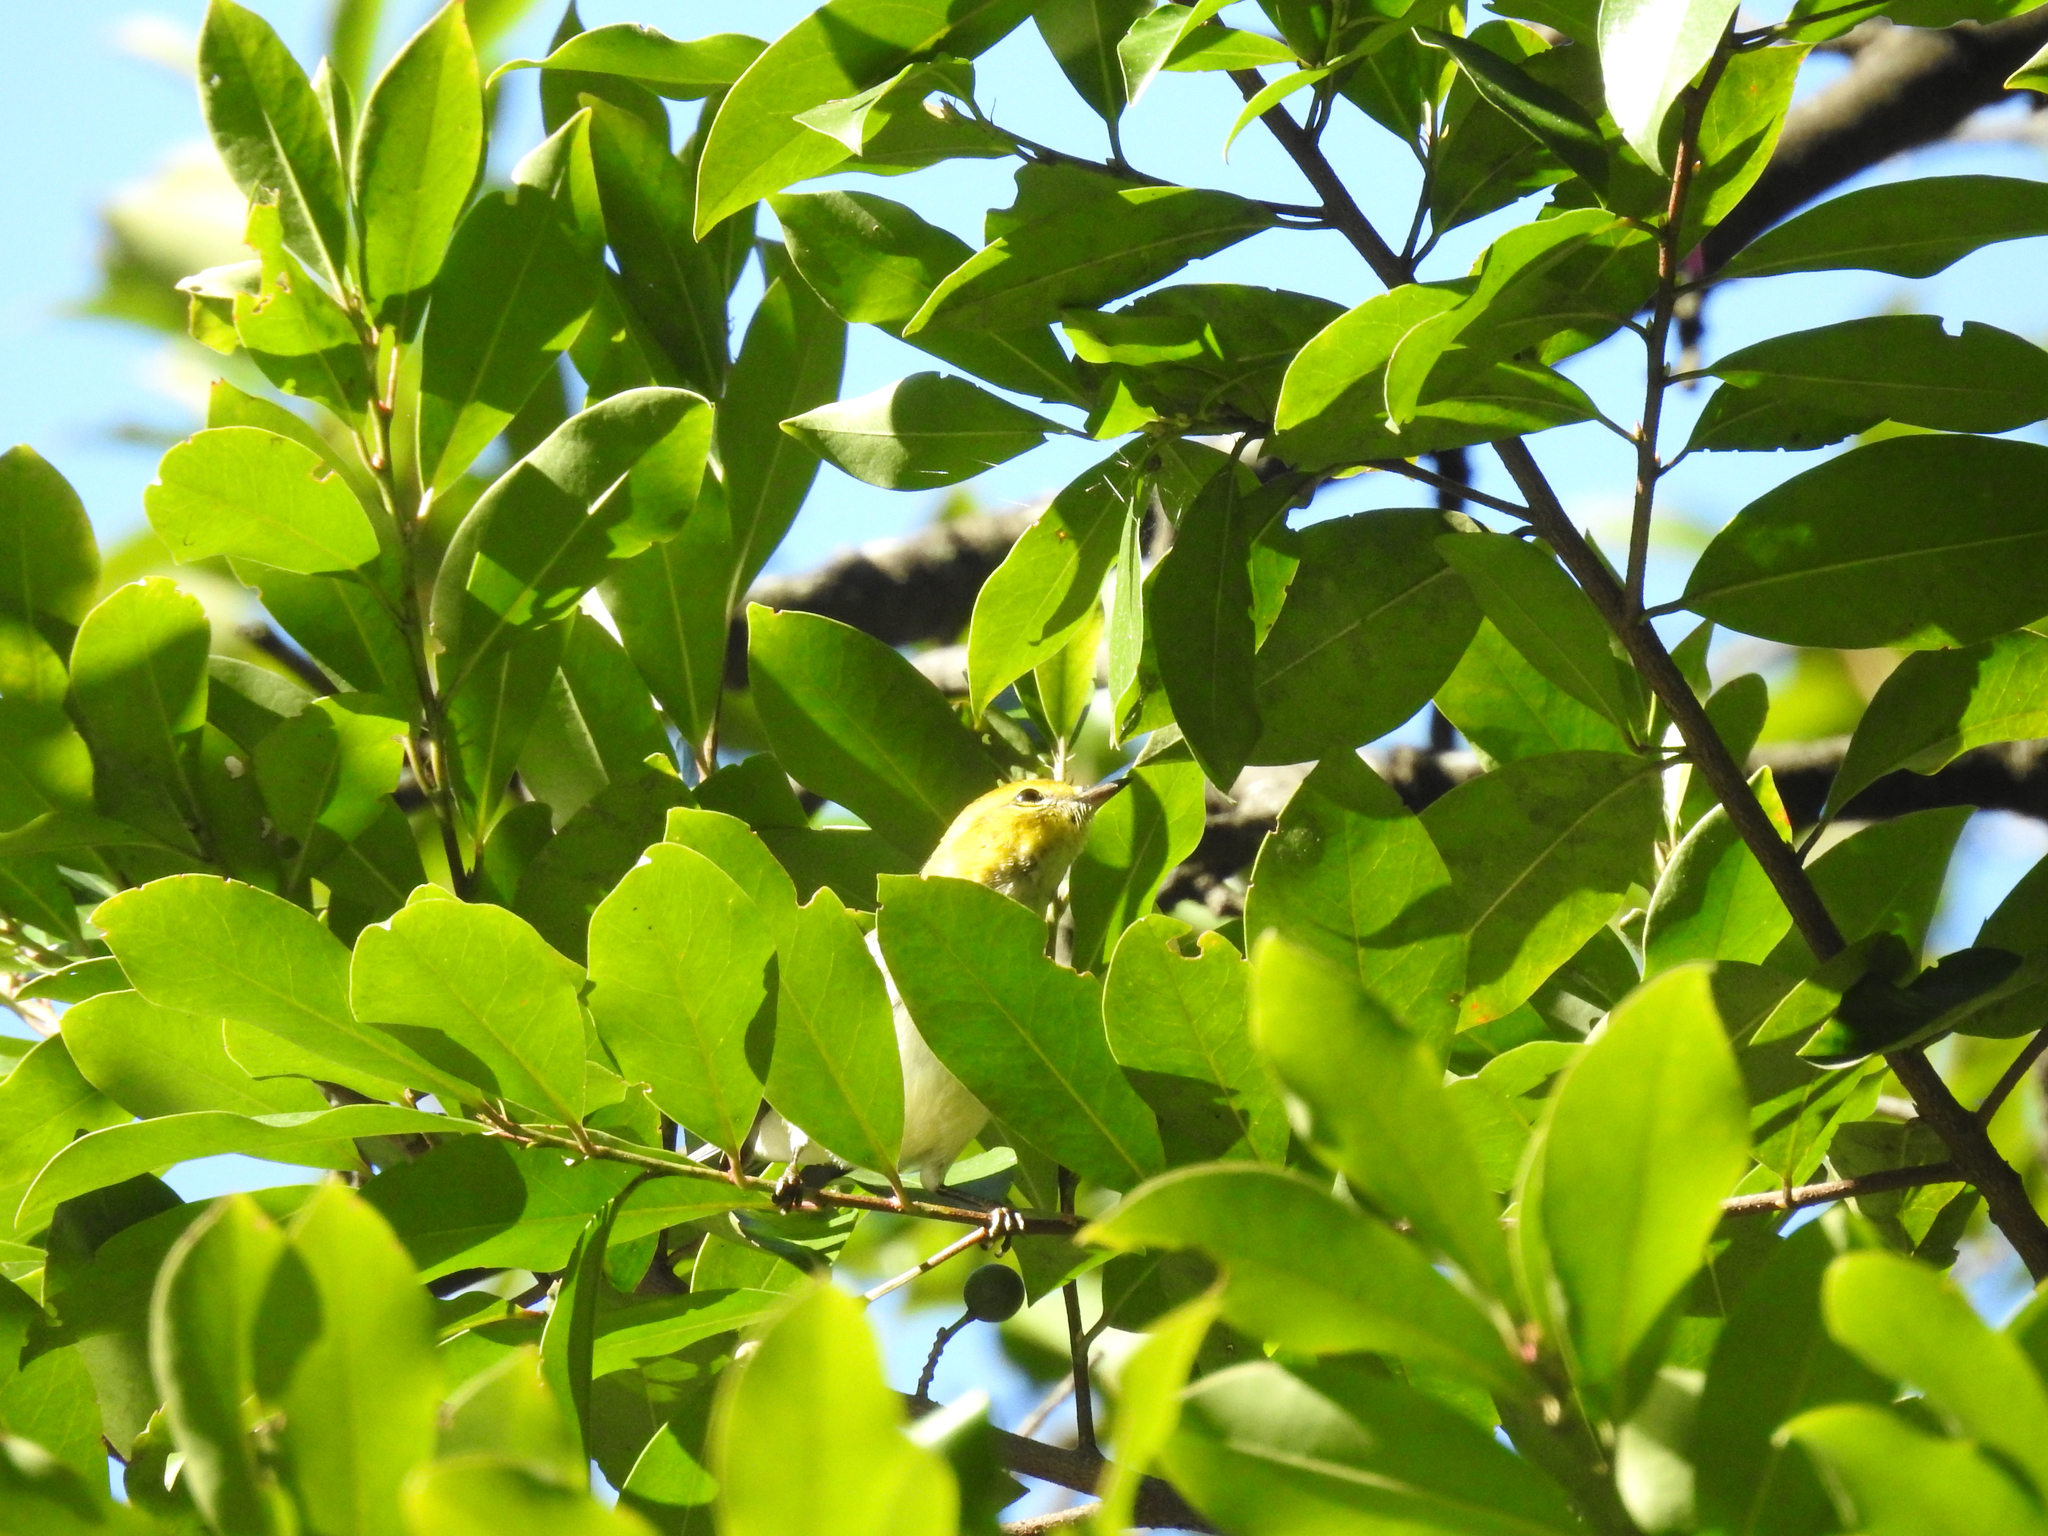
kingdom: Animalia
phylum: Chordata
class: Aves
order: Passeriformes
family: Parulidae
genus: Setophaga
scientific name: Setophaga virens
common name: Black-throated green warbler
